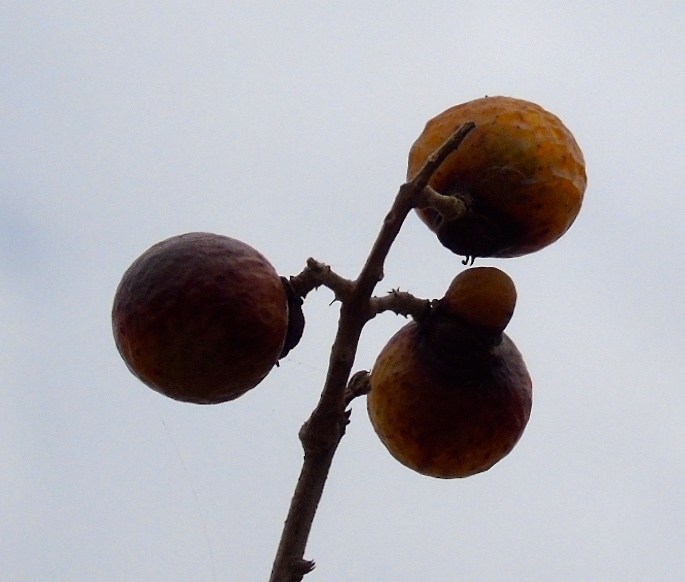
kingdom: Plantae
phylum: Tracheophyta
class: Magnoliopsida
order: Sapindales
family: Sapindaceae
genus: Sapindus
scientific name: Sapindus drummondii
